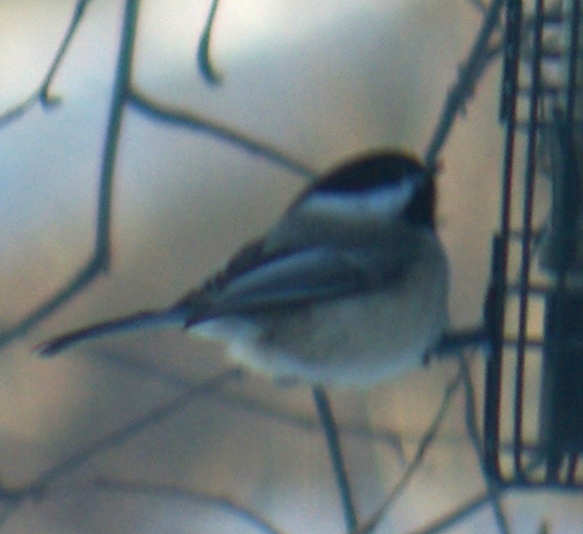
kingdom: Animalia
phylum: Chordata
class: Aves
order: Passeriformes
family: Paridae
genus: Poecile
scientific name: Poecile atricapillus
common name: Black-capped chickadee
